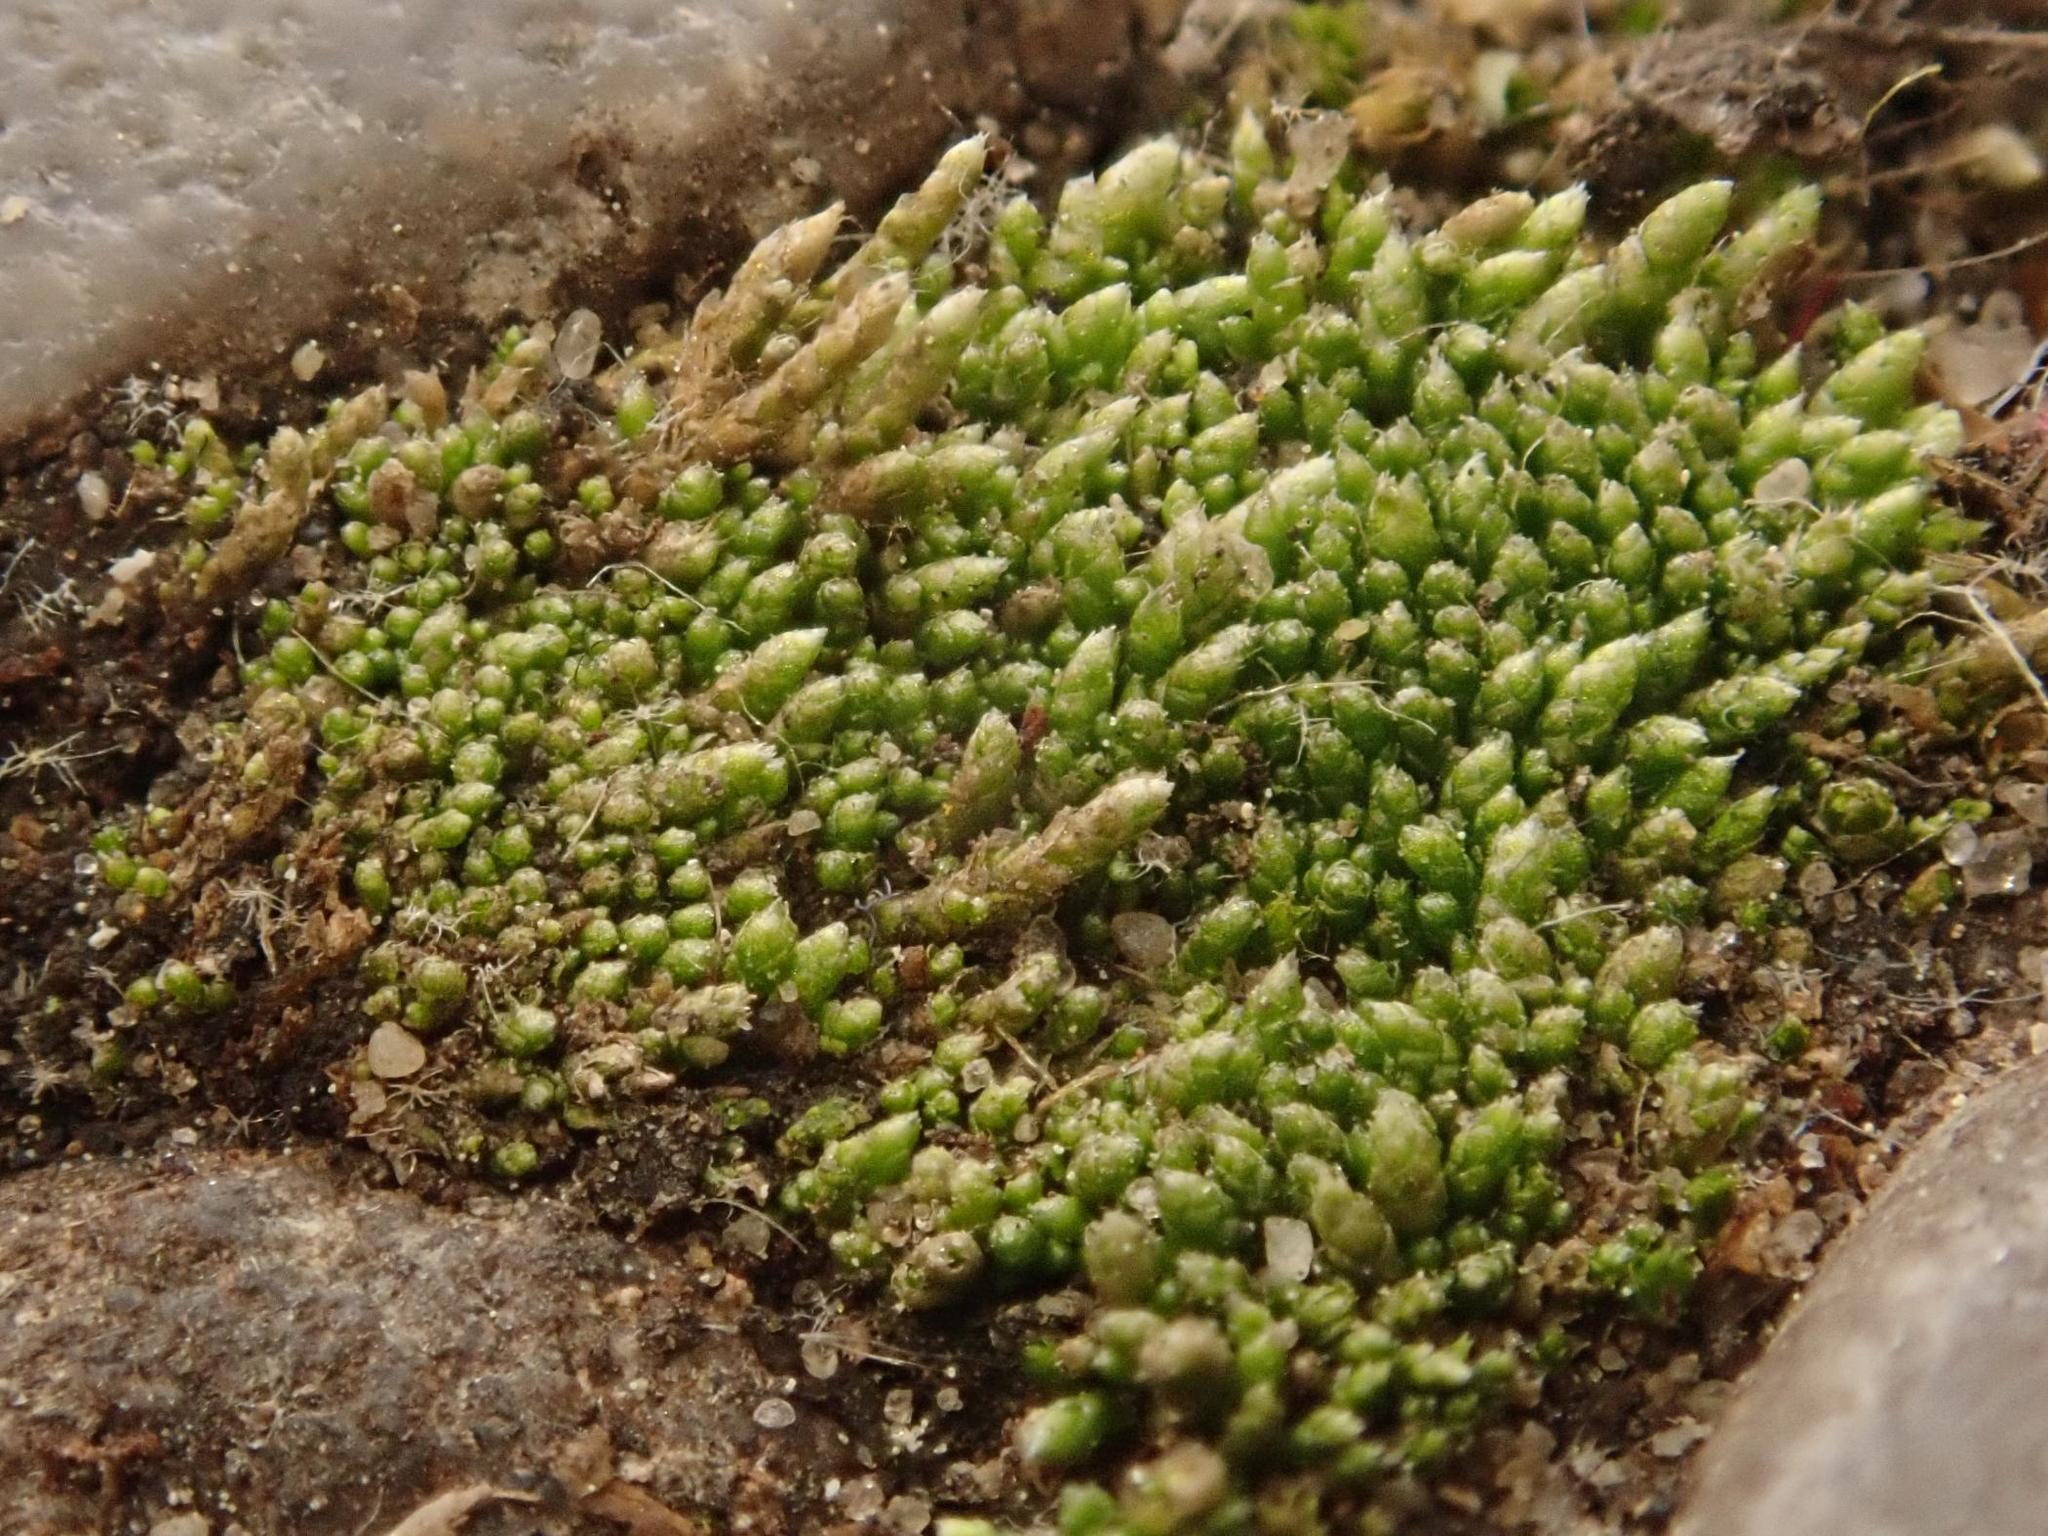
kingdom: Plantae
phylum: Bryophyta
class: Bryopsida
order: Bryales
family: Bryaceae
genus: Bryum
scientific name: Bryum argenteum
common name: Silver-moss
